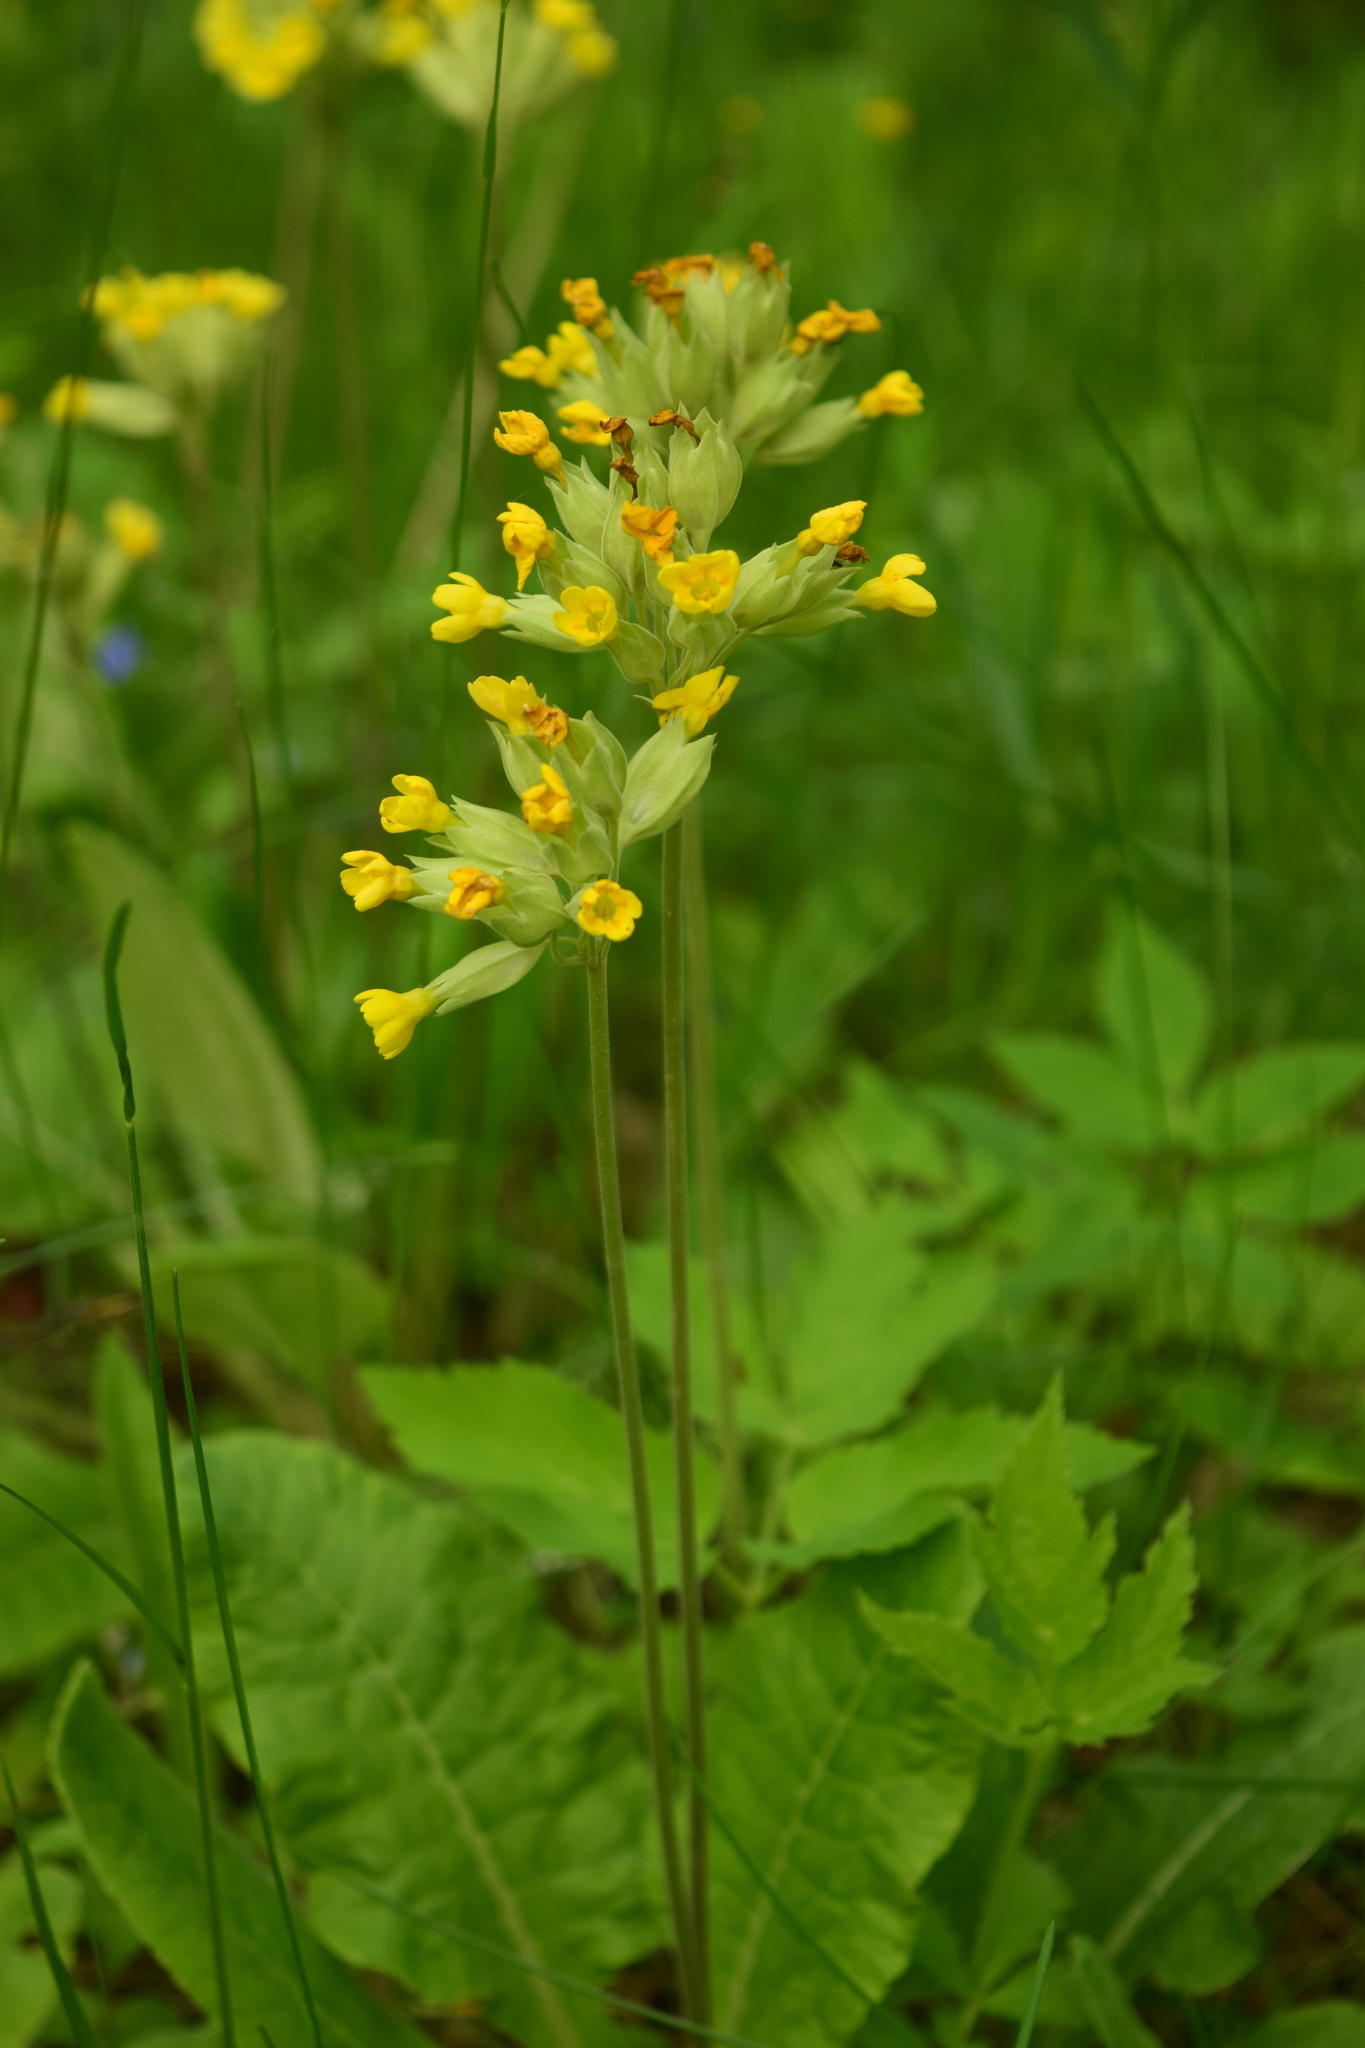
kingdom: Plantae
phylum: Tracheophyta
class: Magnoliopsida
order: Ericales
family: Primulaceae
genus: Primula
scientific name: Primula veris
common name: Cowslip
